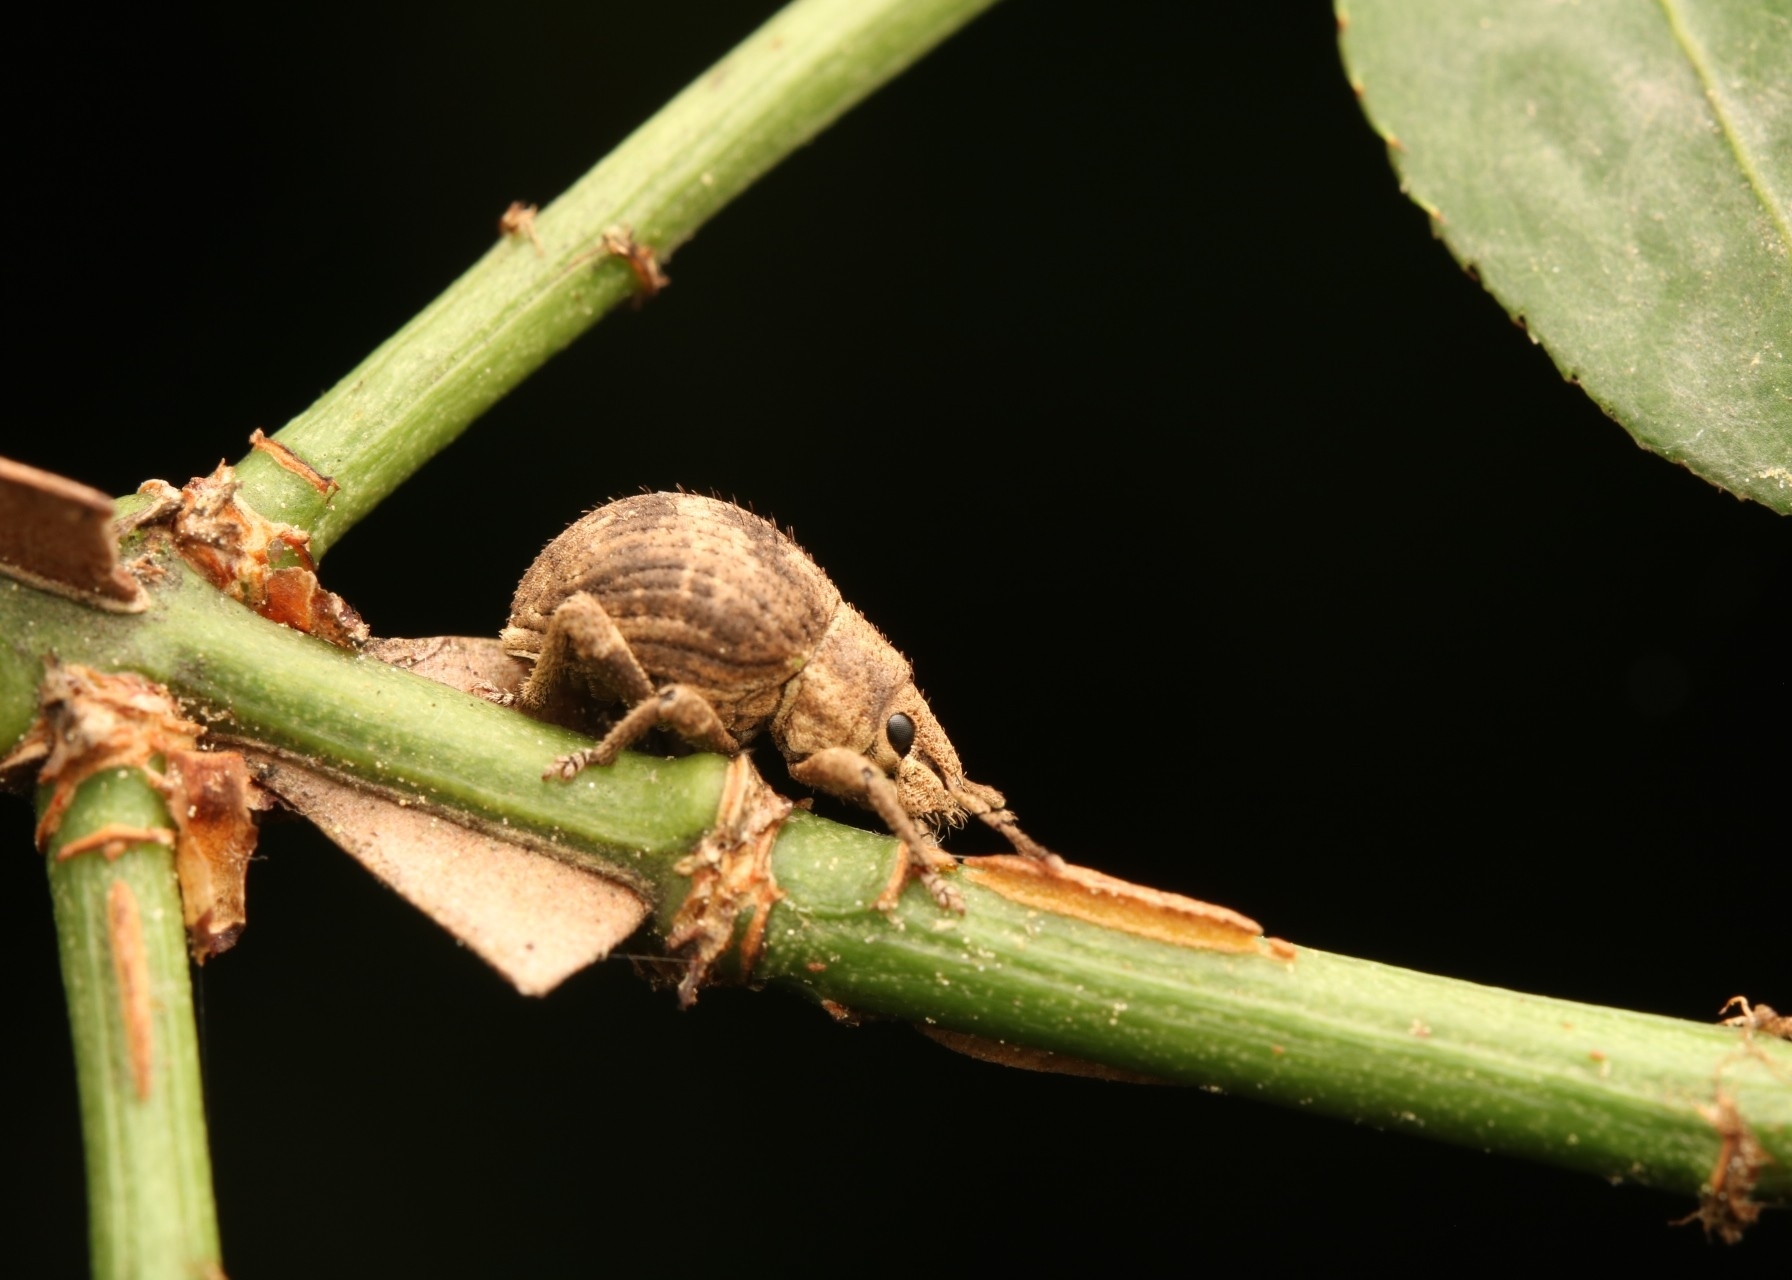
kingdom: Animalia
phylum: Arthropoda
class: Insecta
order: Coleoptera
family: Curculionidae
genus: Pseudocneorhinus
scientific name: Pseudocneorhinus bifasciatus
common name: Two-banded japanese weevil
